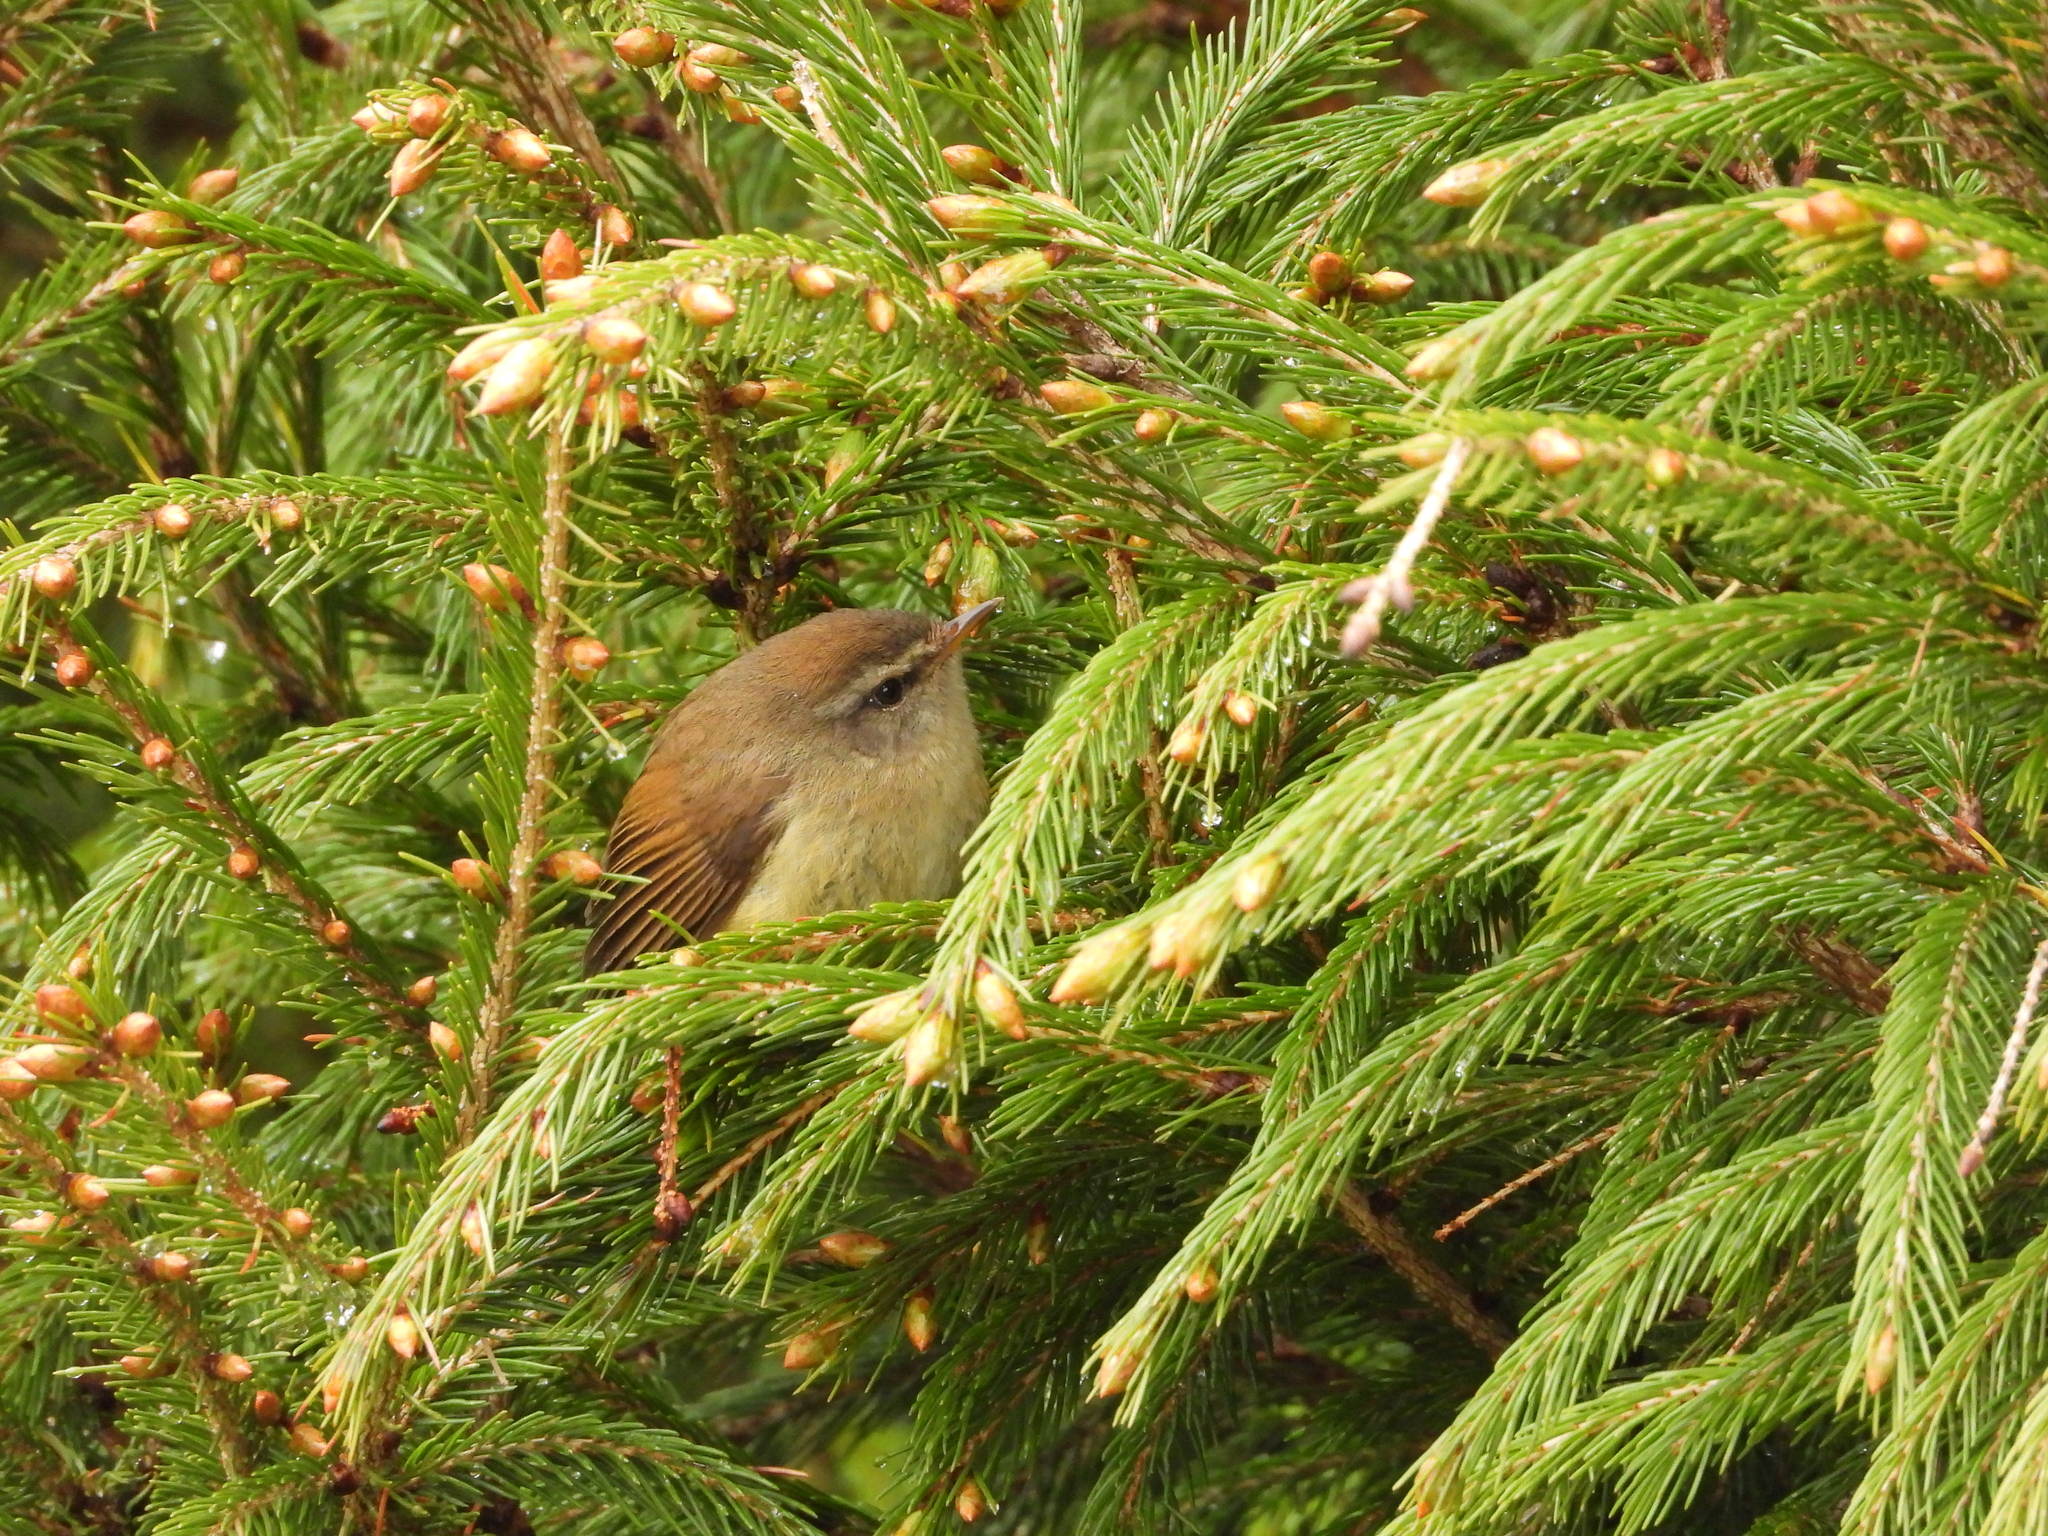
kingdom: Animalia
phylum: Chordata
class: Aves
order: Passeriformes
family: Cettiidae
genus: Horornis
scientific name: Horornis acanthizoides
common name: Yellow-bellied bush warbler
